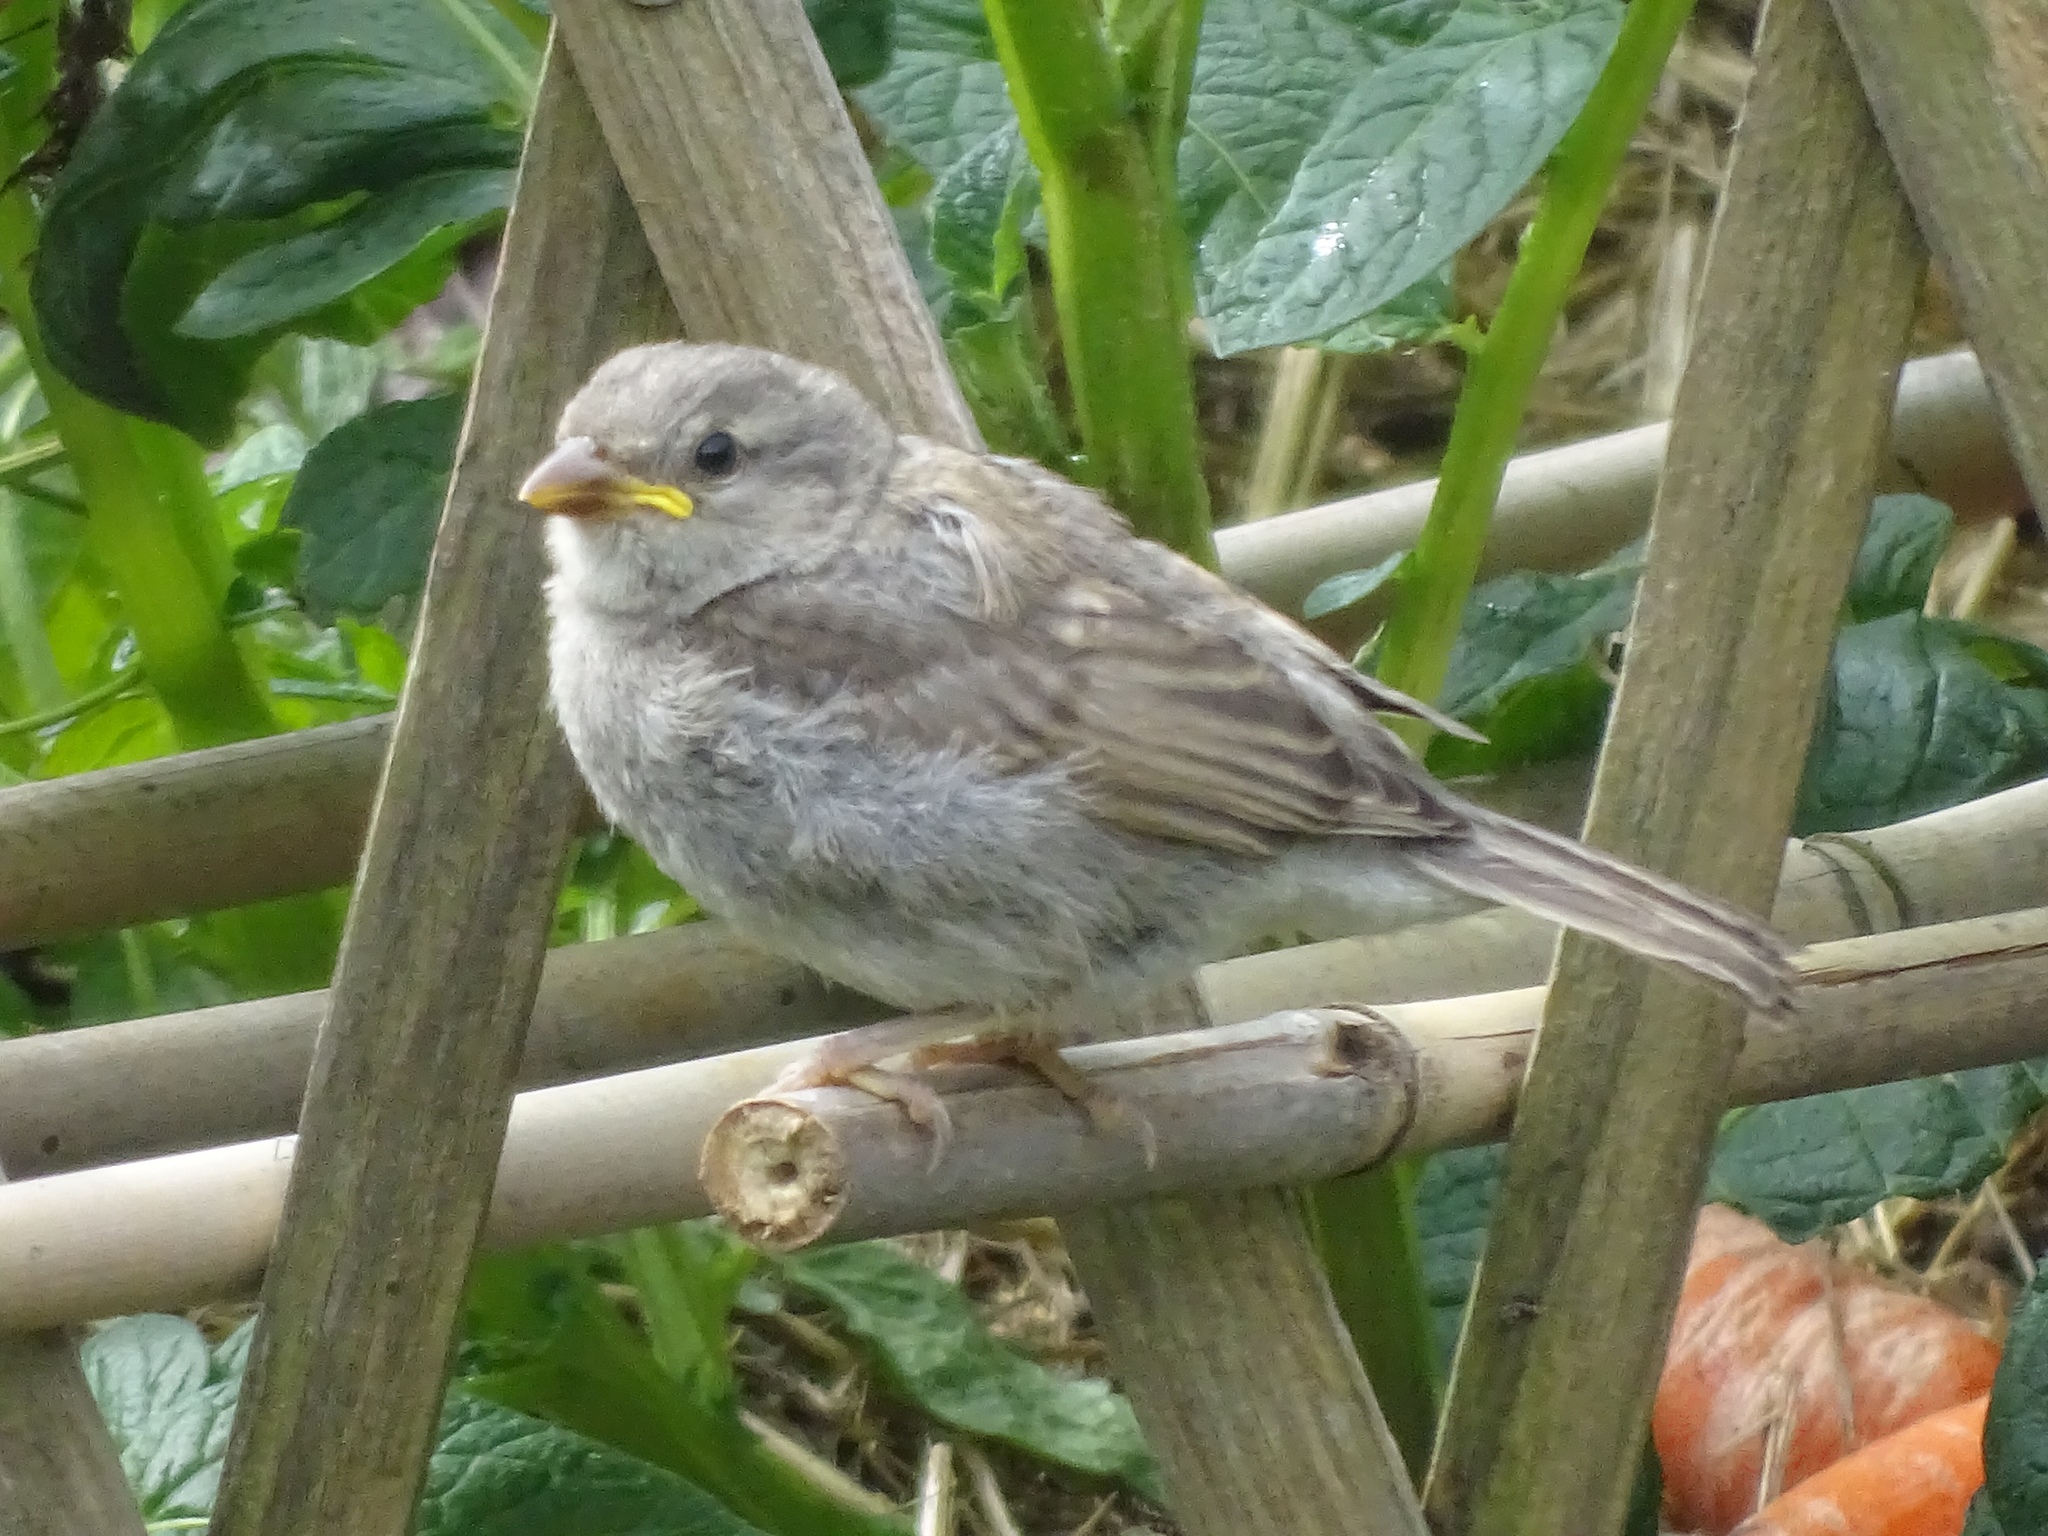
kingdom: Animalia
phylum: Chordata
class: Aves
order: Passeriformes
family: Passeridae
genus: Passer
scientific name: Passer domesticus
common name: House sparrow
